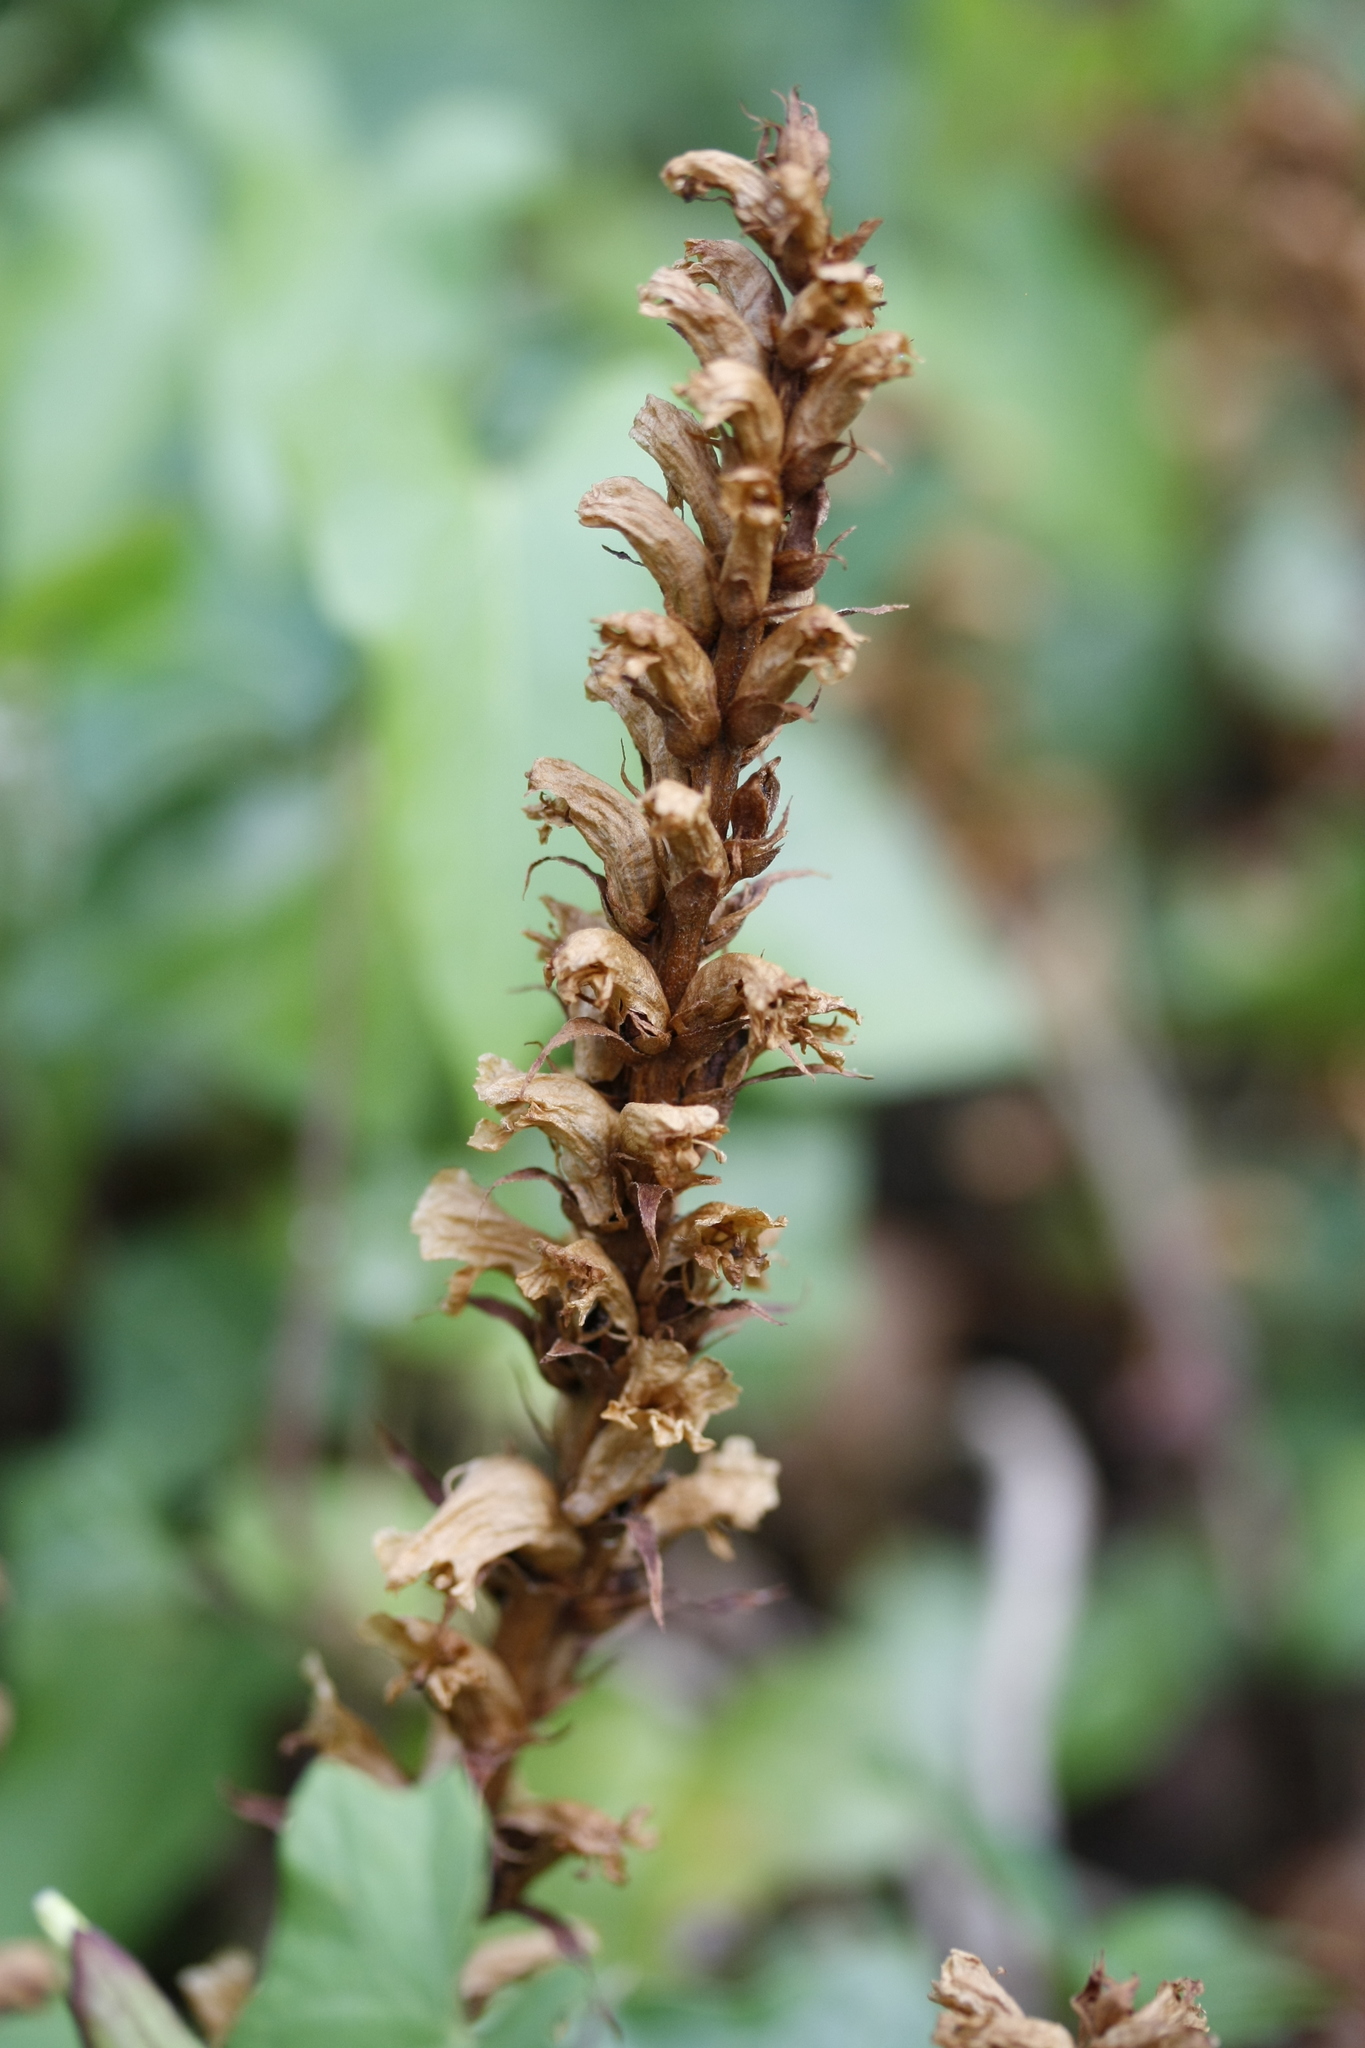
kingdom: Plantae
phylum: Tracheophyta
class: Magnoliopsida
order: Lamiales
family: Orobanchaceae
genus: Orobanche
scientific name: Orobanche hederae
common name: Ivy broomrape
